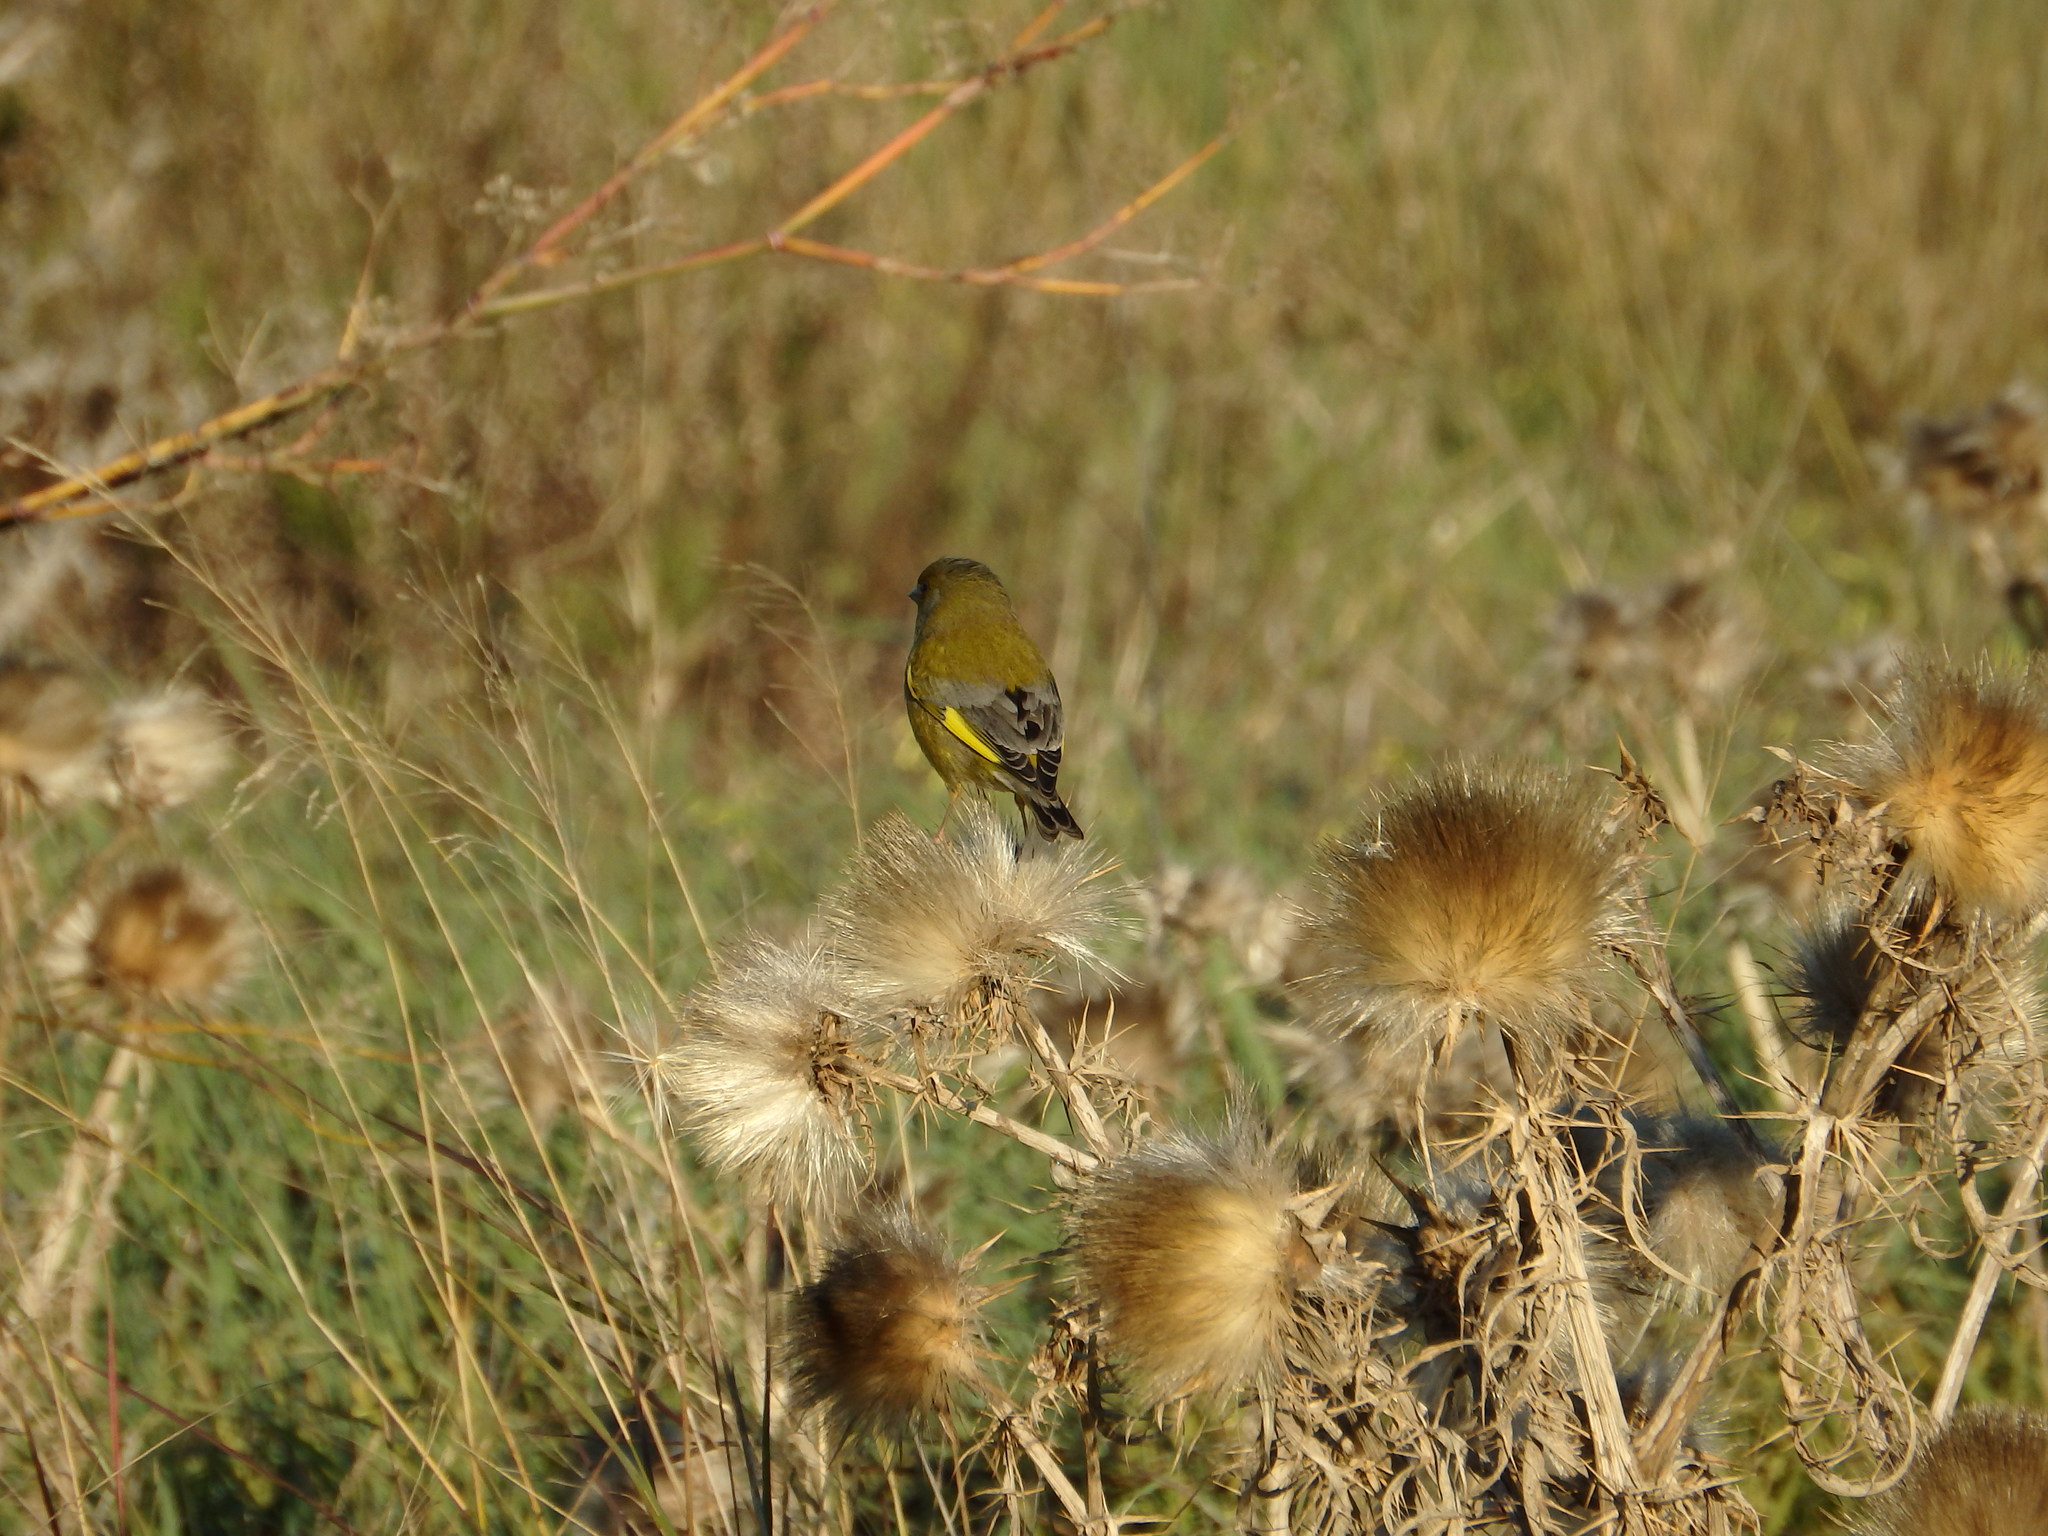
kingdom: Plantae
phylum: Tracheophyta
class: Liliopsida
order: Poales
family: Poaceae
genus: Chloris
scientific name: Chloris chloris
